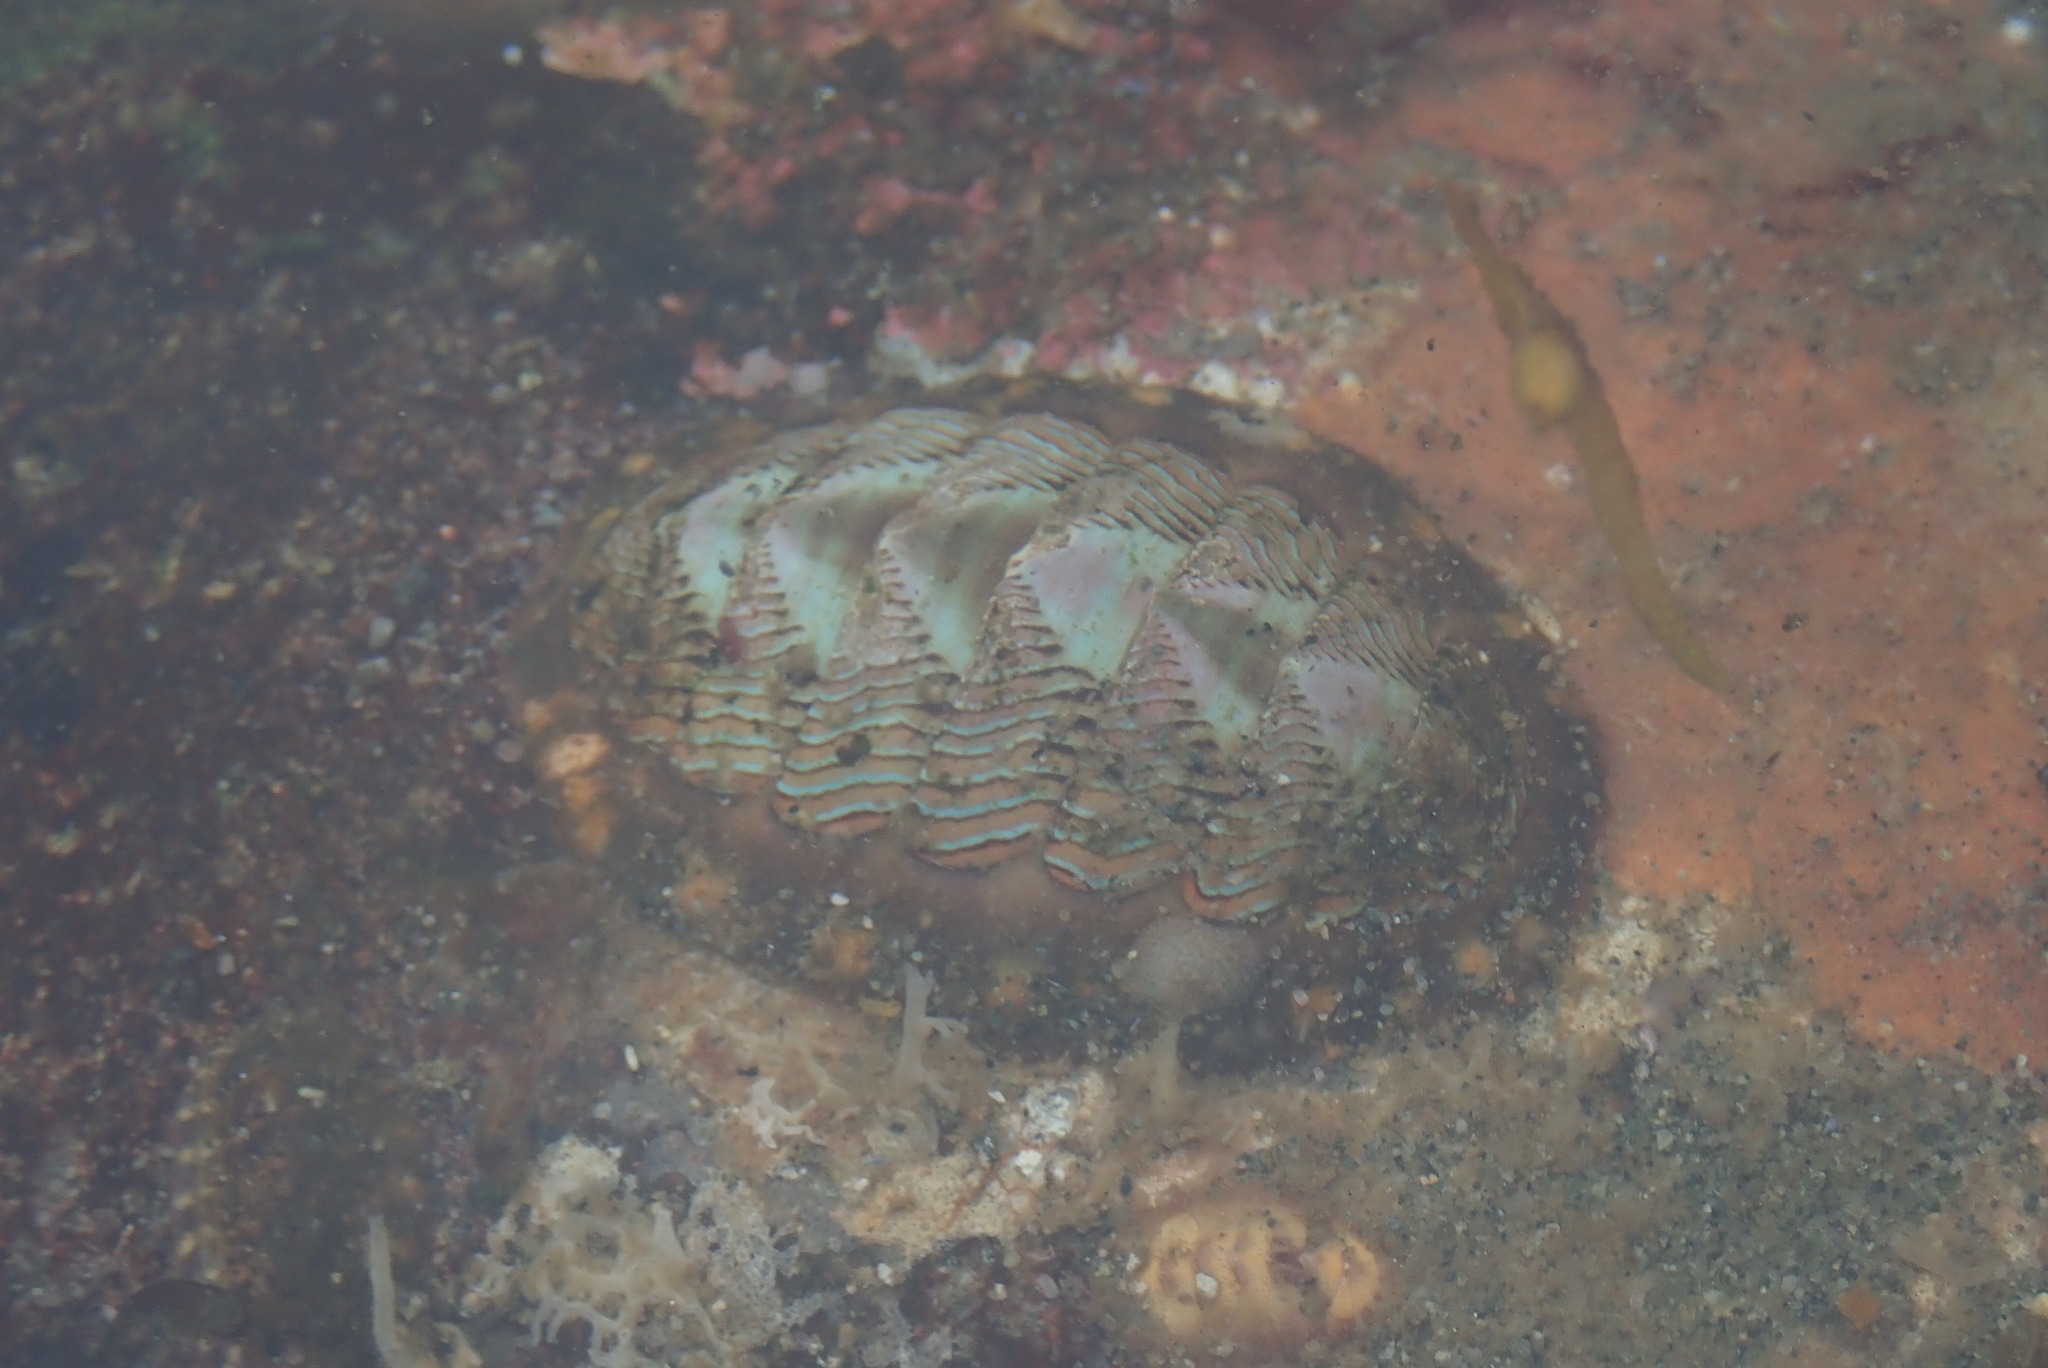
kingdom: Animalia
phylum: Mollusca
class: Polyplacophora
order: Chitonida
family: Tonicellidae
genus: Tonicella
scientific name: Tonicella lineata
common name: Lined chiton
